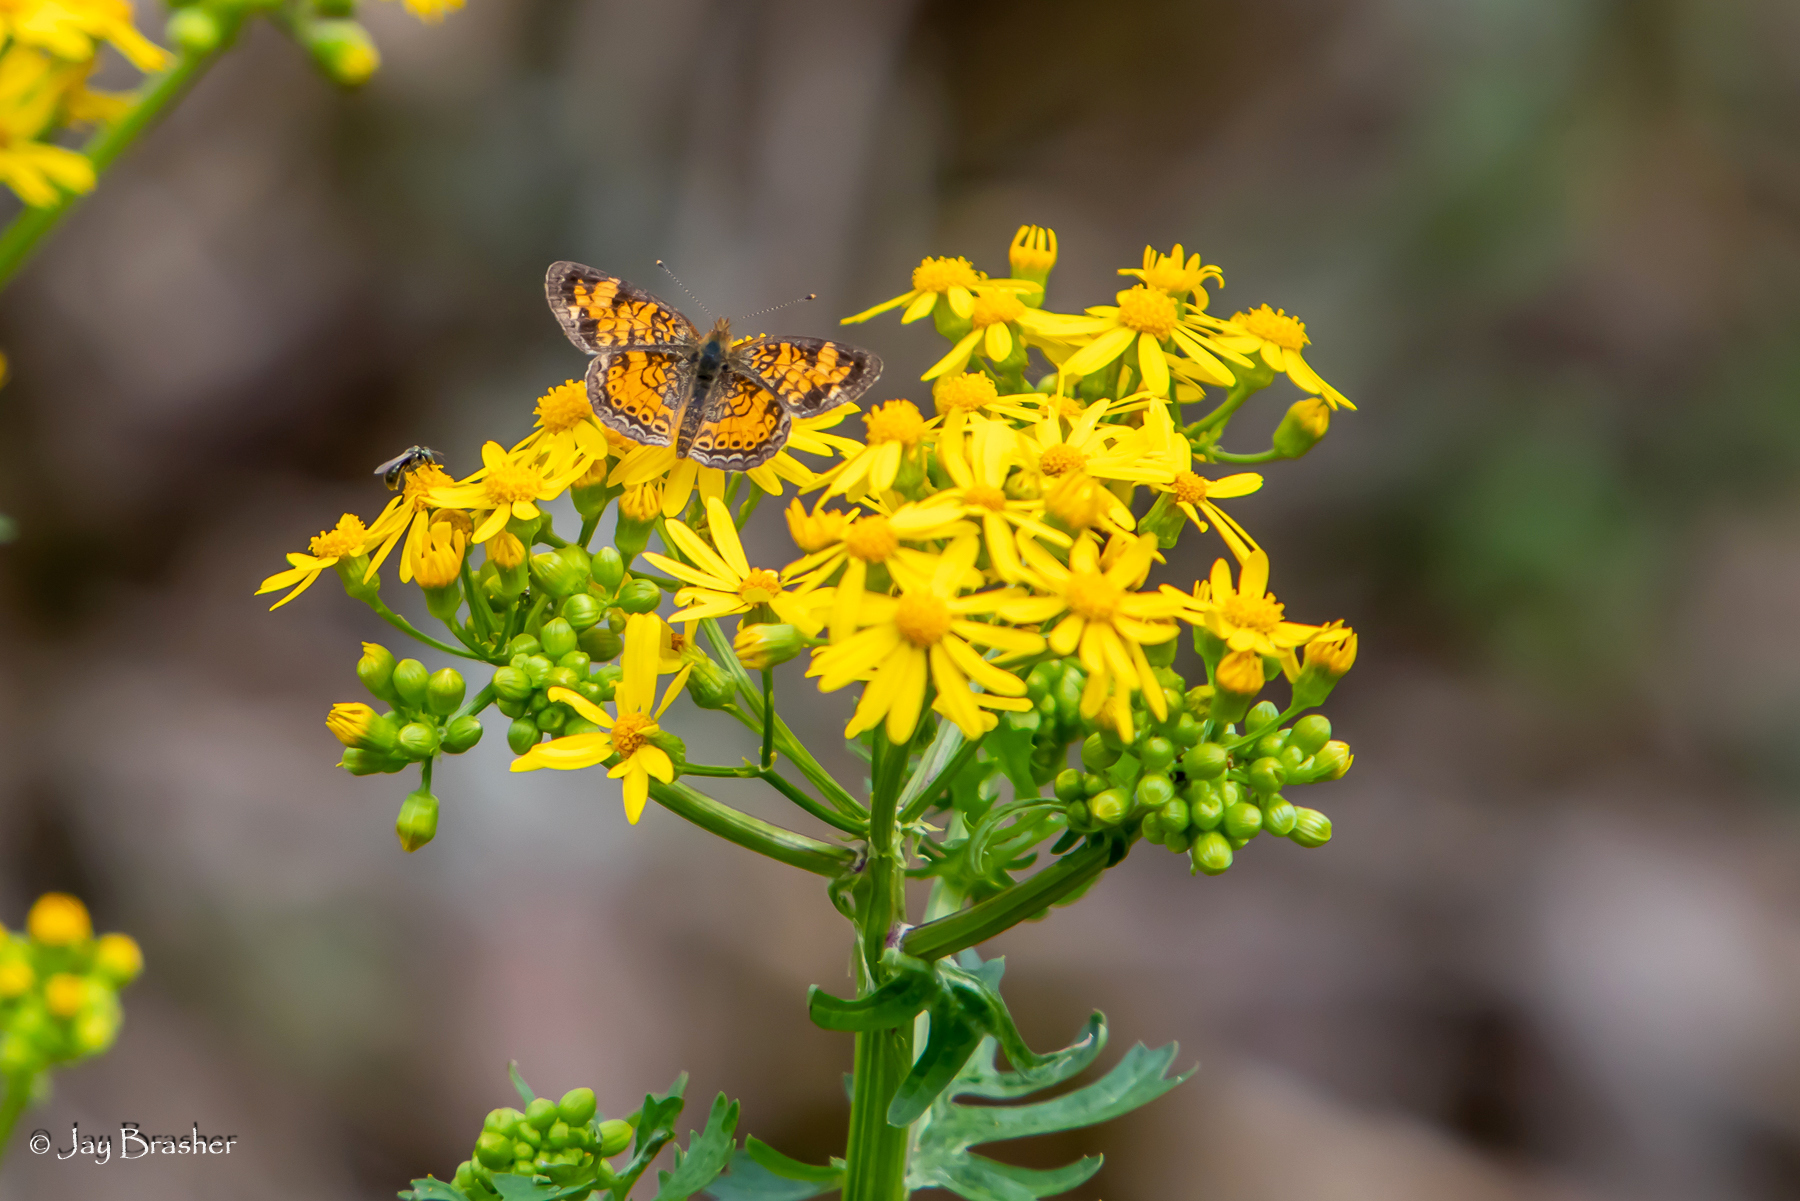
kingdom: Animalia
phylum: Arthropoda
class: Insecta
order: Lepidoptera
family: Nymphalidae
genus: Phyciodes
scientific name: Phyciodes tharos
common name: Pearl crescent
